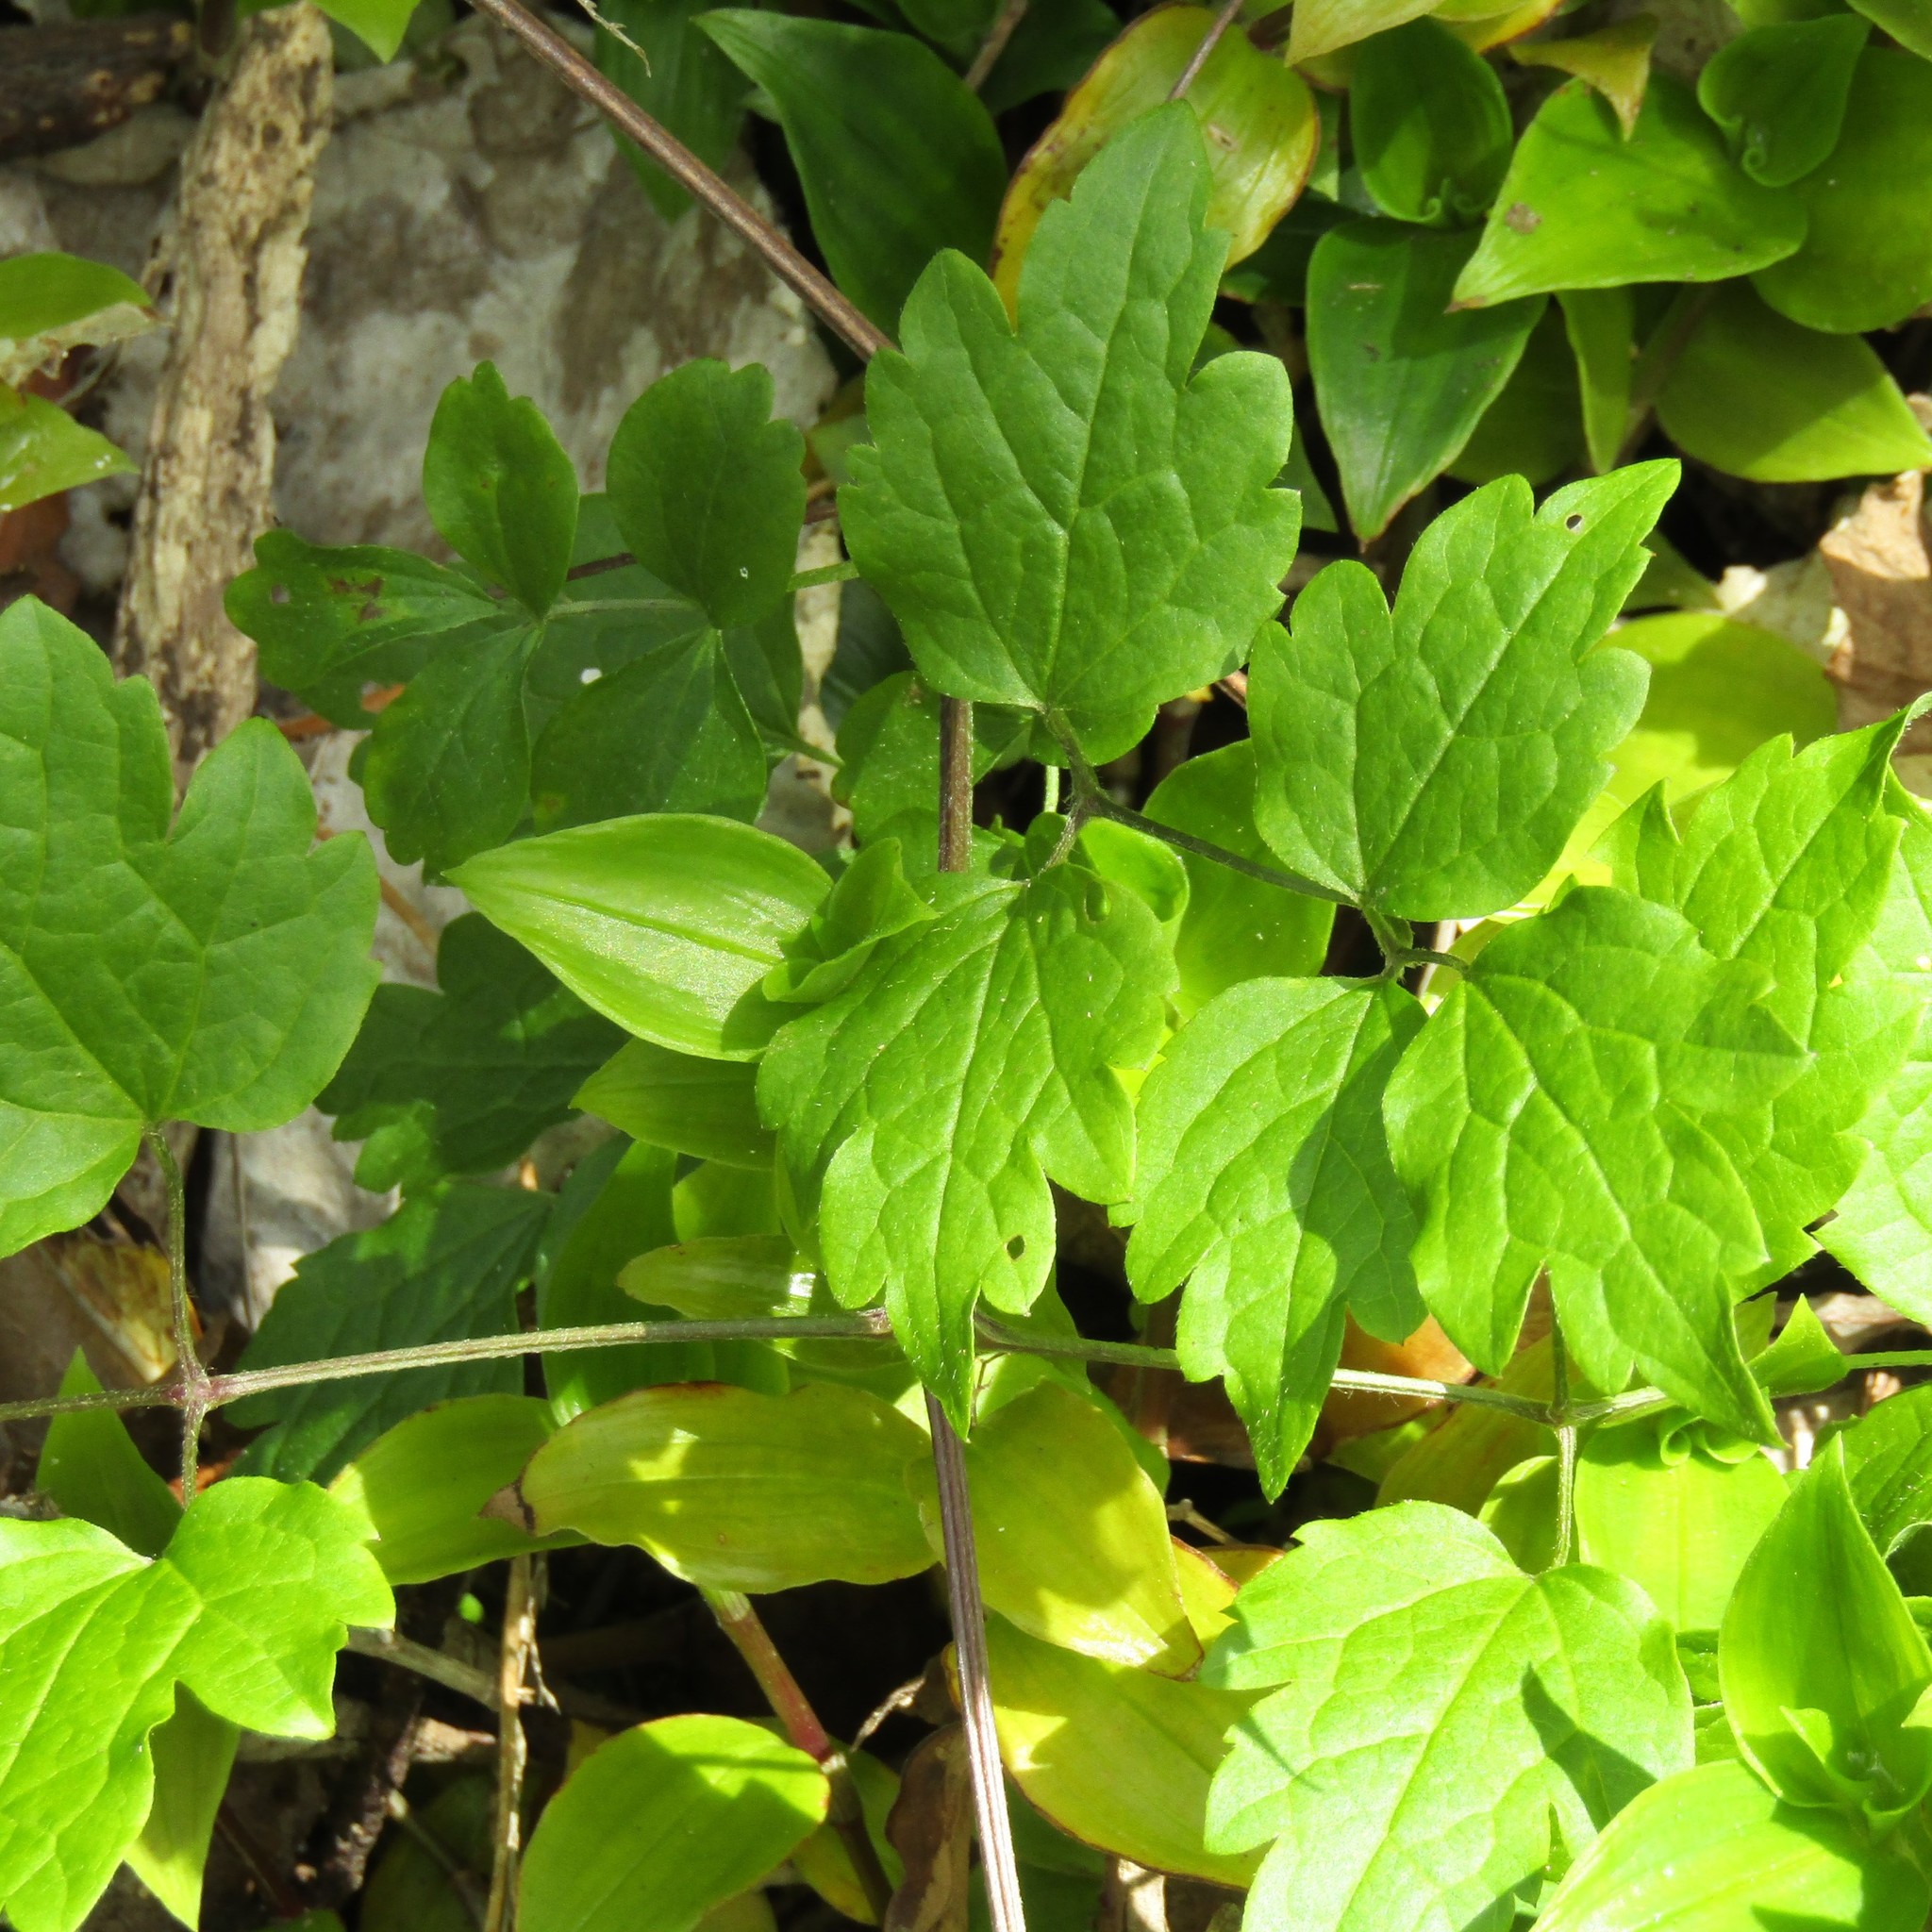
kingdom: Plantae
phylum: Tracheophyta
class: Magnoliopsida
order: Ranunculales
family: Ranunculaceae
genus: Clematis
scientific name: Clematis vitalba
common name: Evergreen clematis
